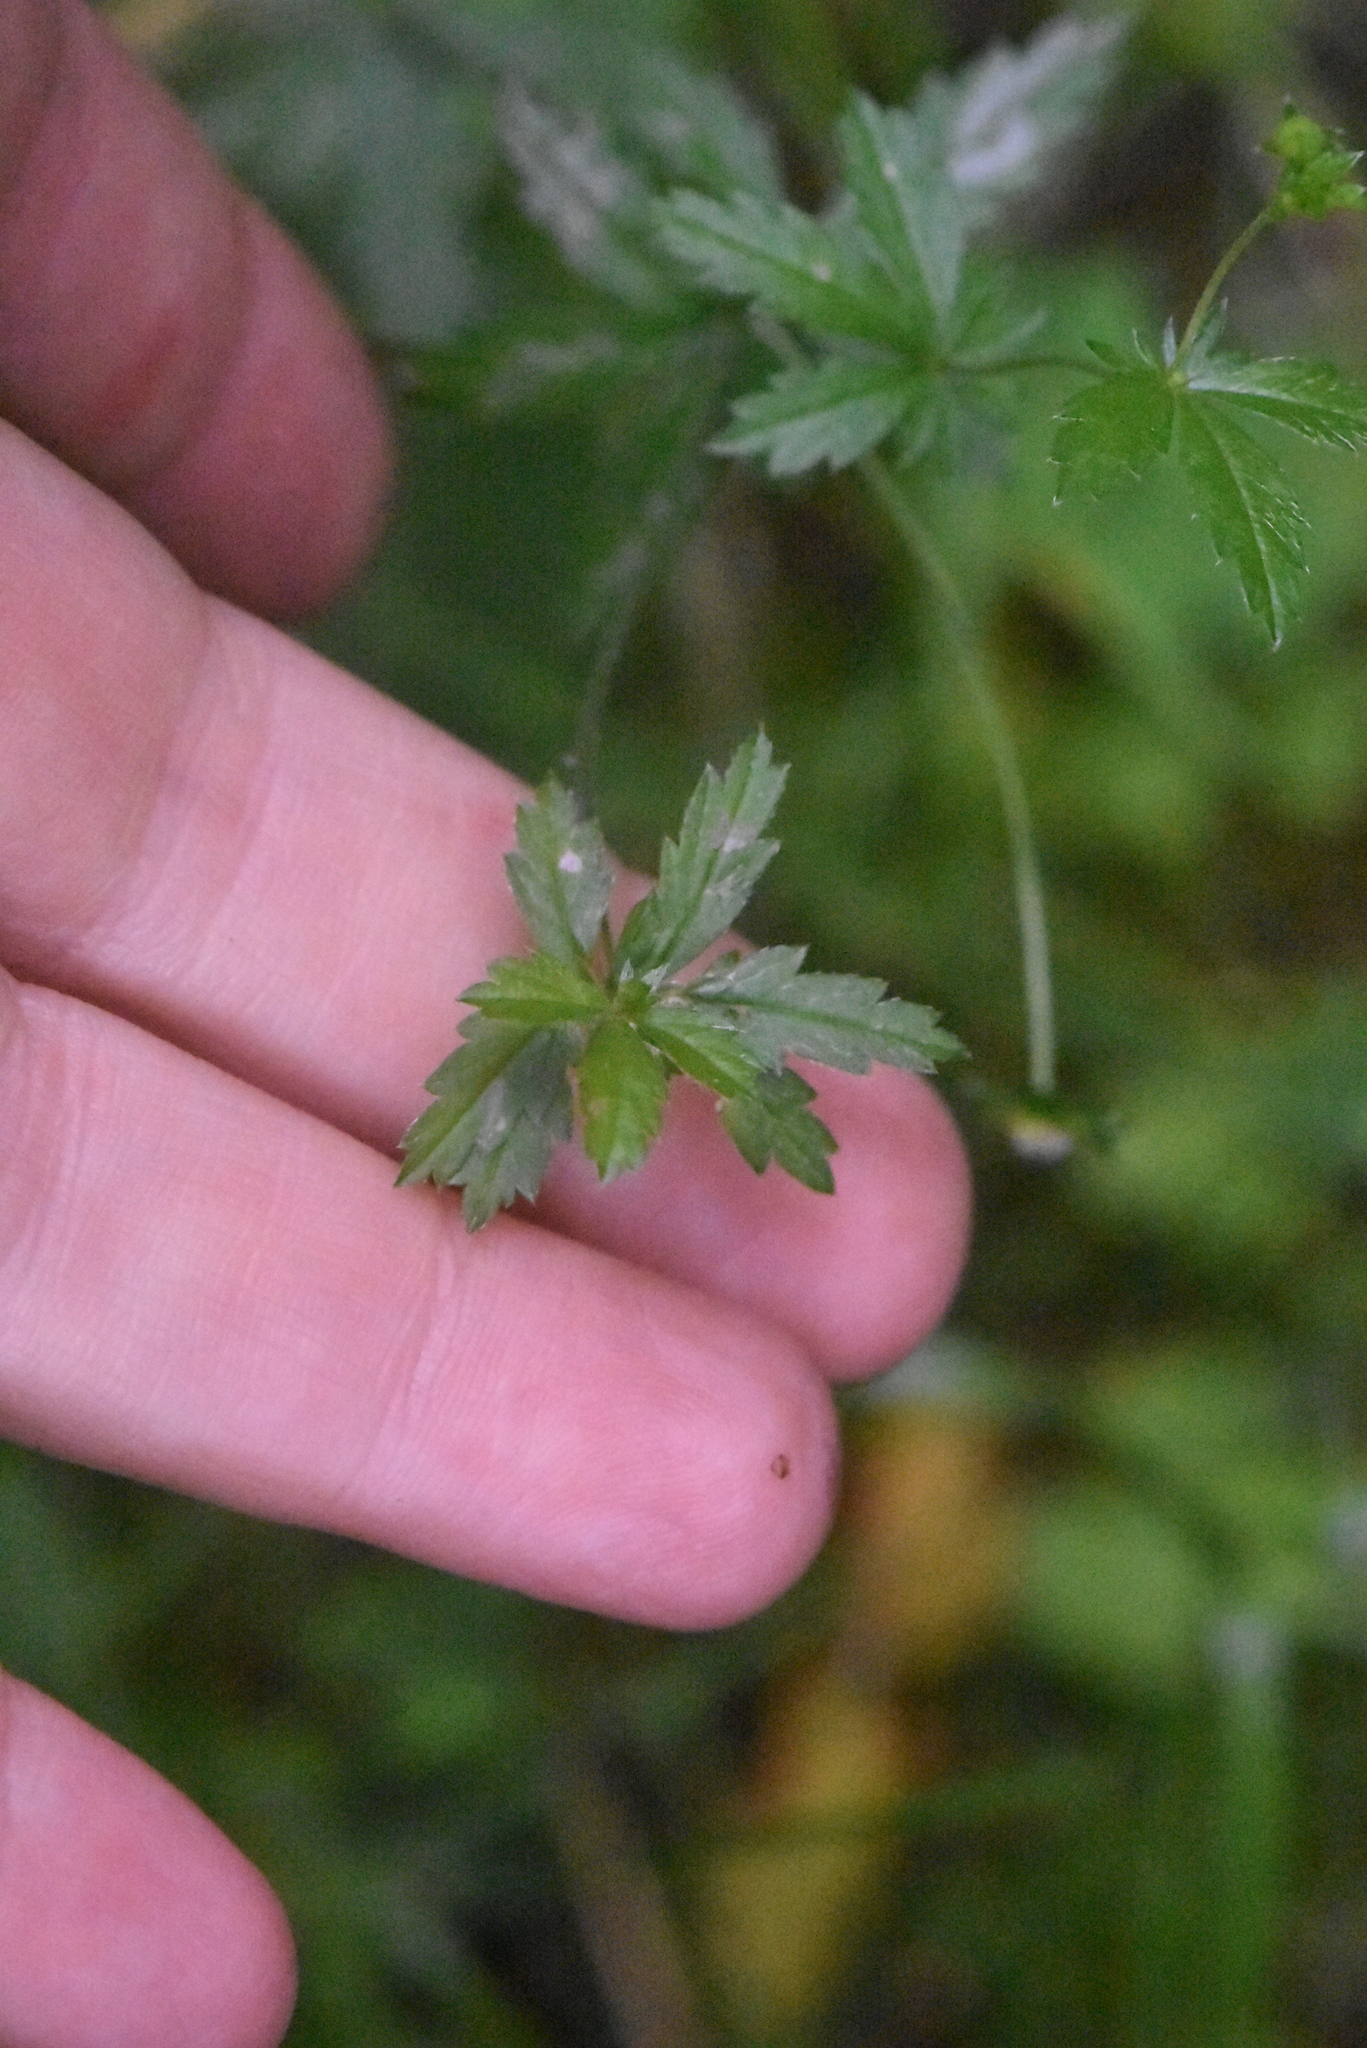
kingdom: Plantae
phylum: Tracheophyta
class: Magnoliopsida
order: Rosales
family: Rosaceae
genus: Potentilla
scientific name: Potentilla erecta
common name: Tormentil
